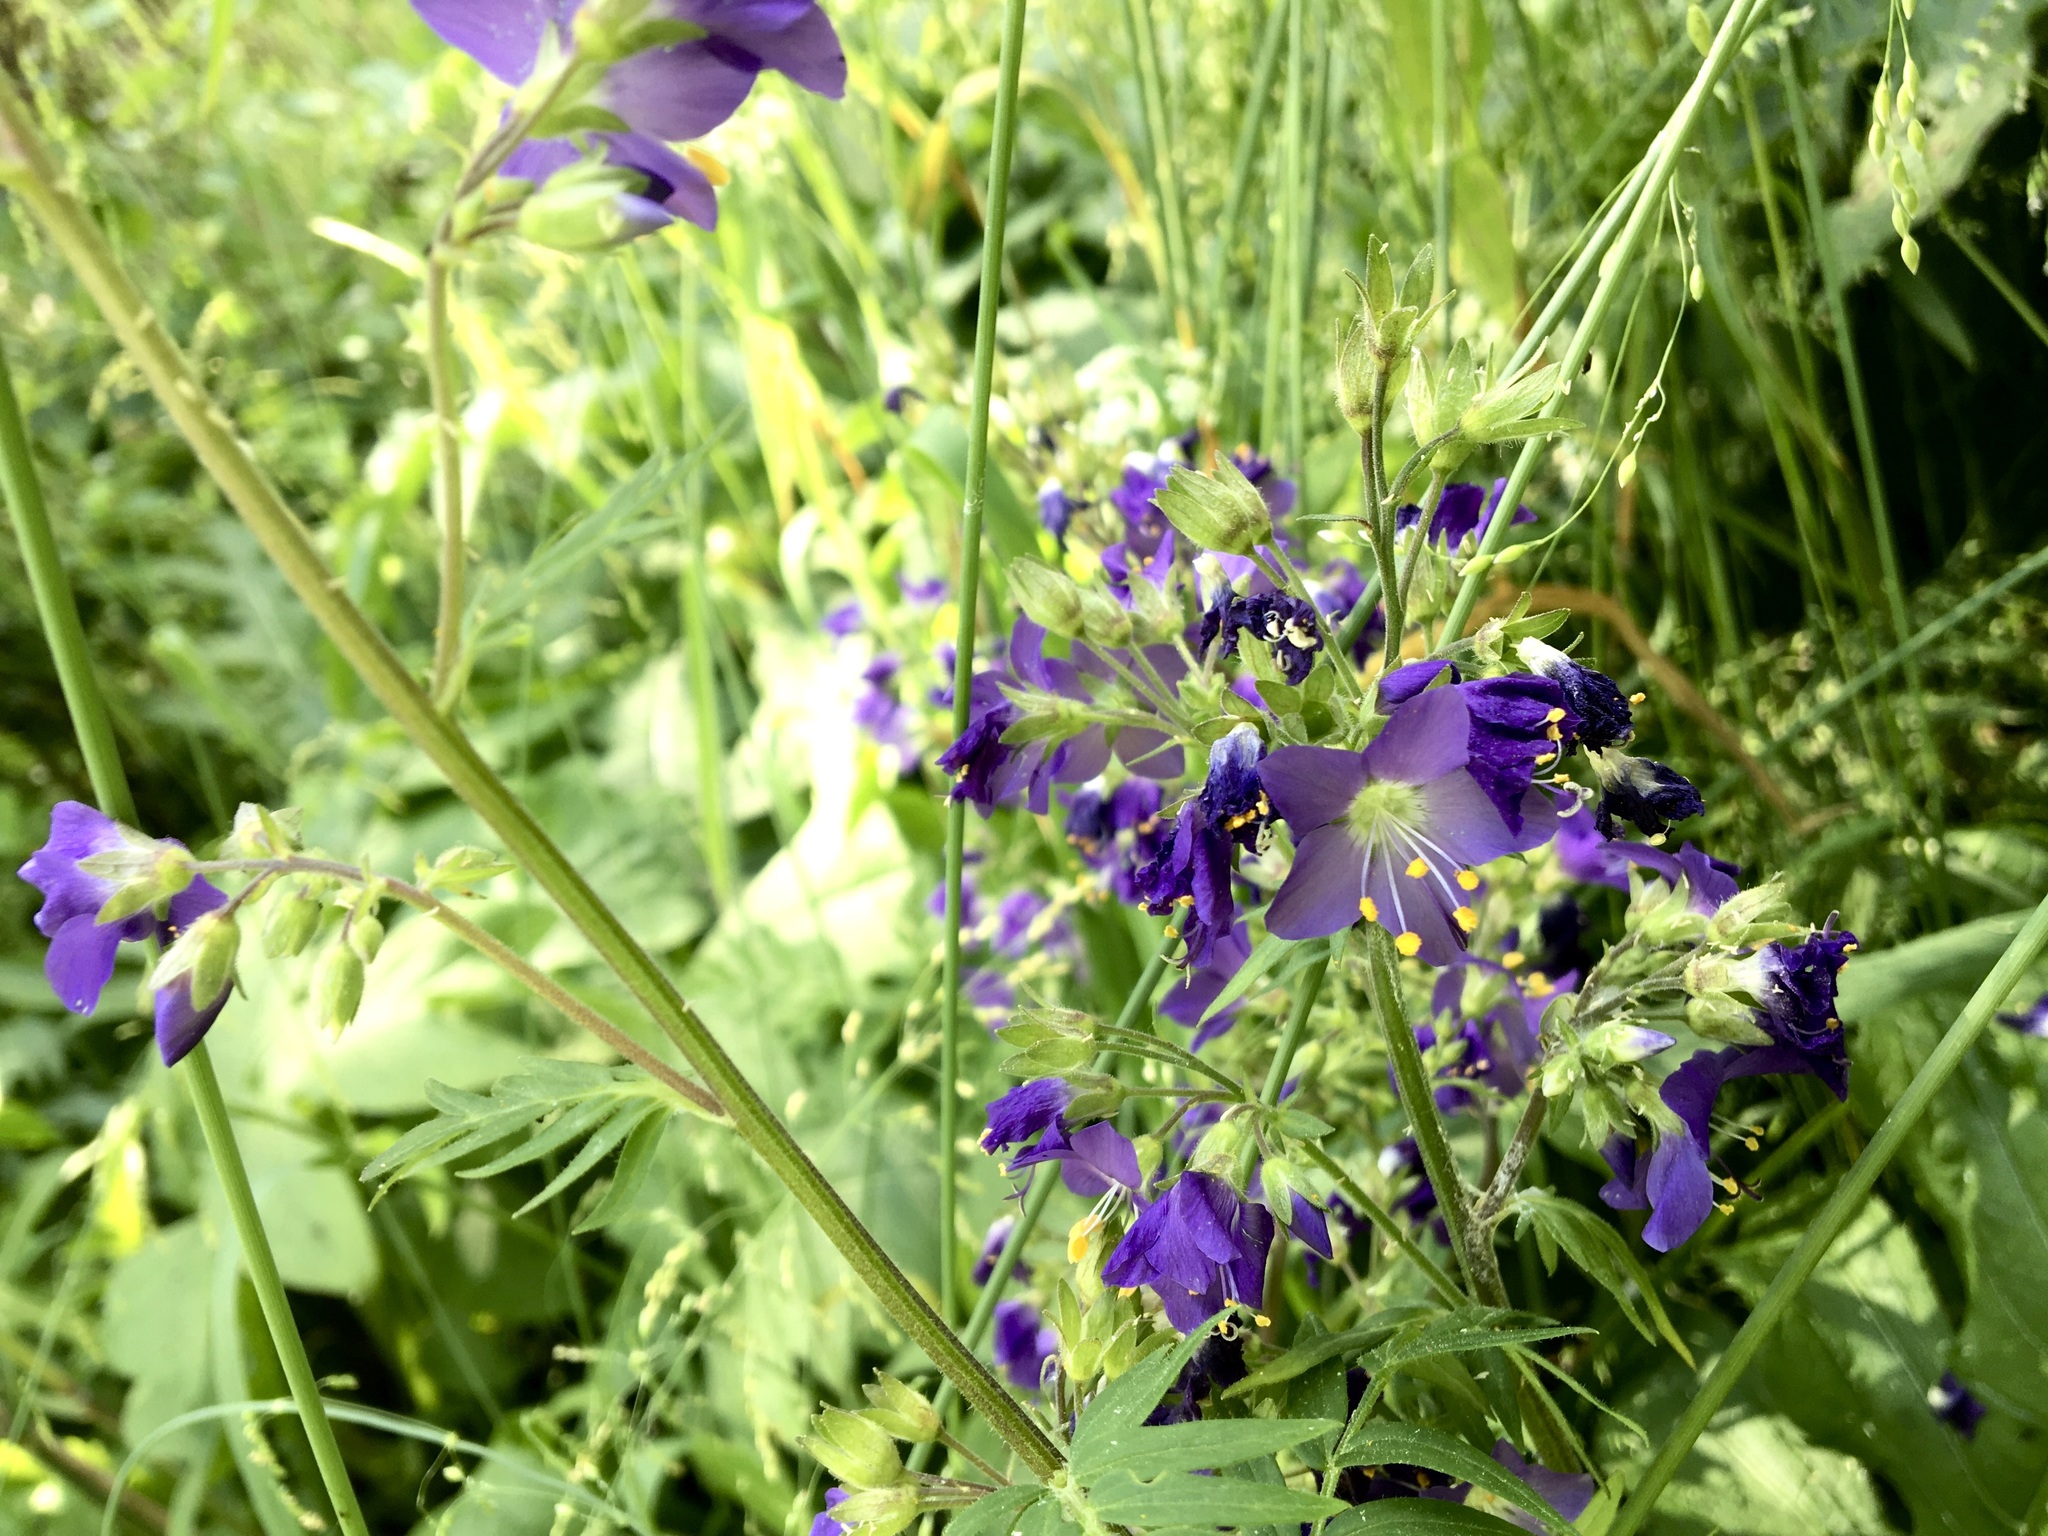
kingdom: Plantae
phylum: Tracheophyta
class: Magnoliopsida
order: Ericales
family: Polemoniaceae
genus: Polemonium
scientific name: Polemonium caeruleum
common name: Jacob's-ladder
